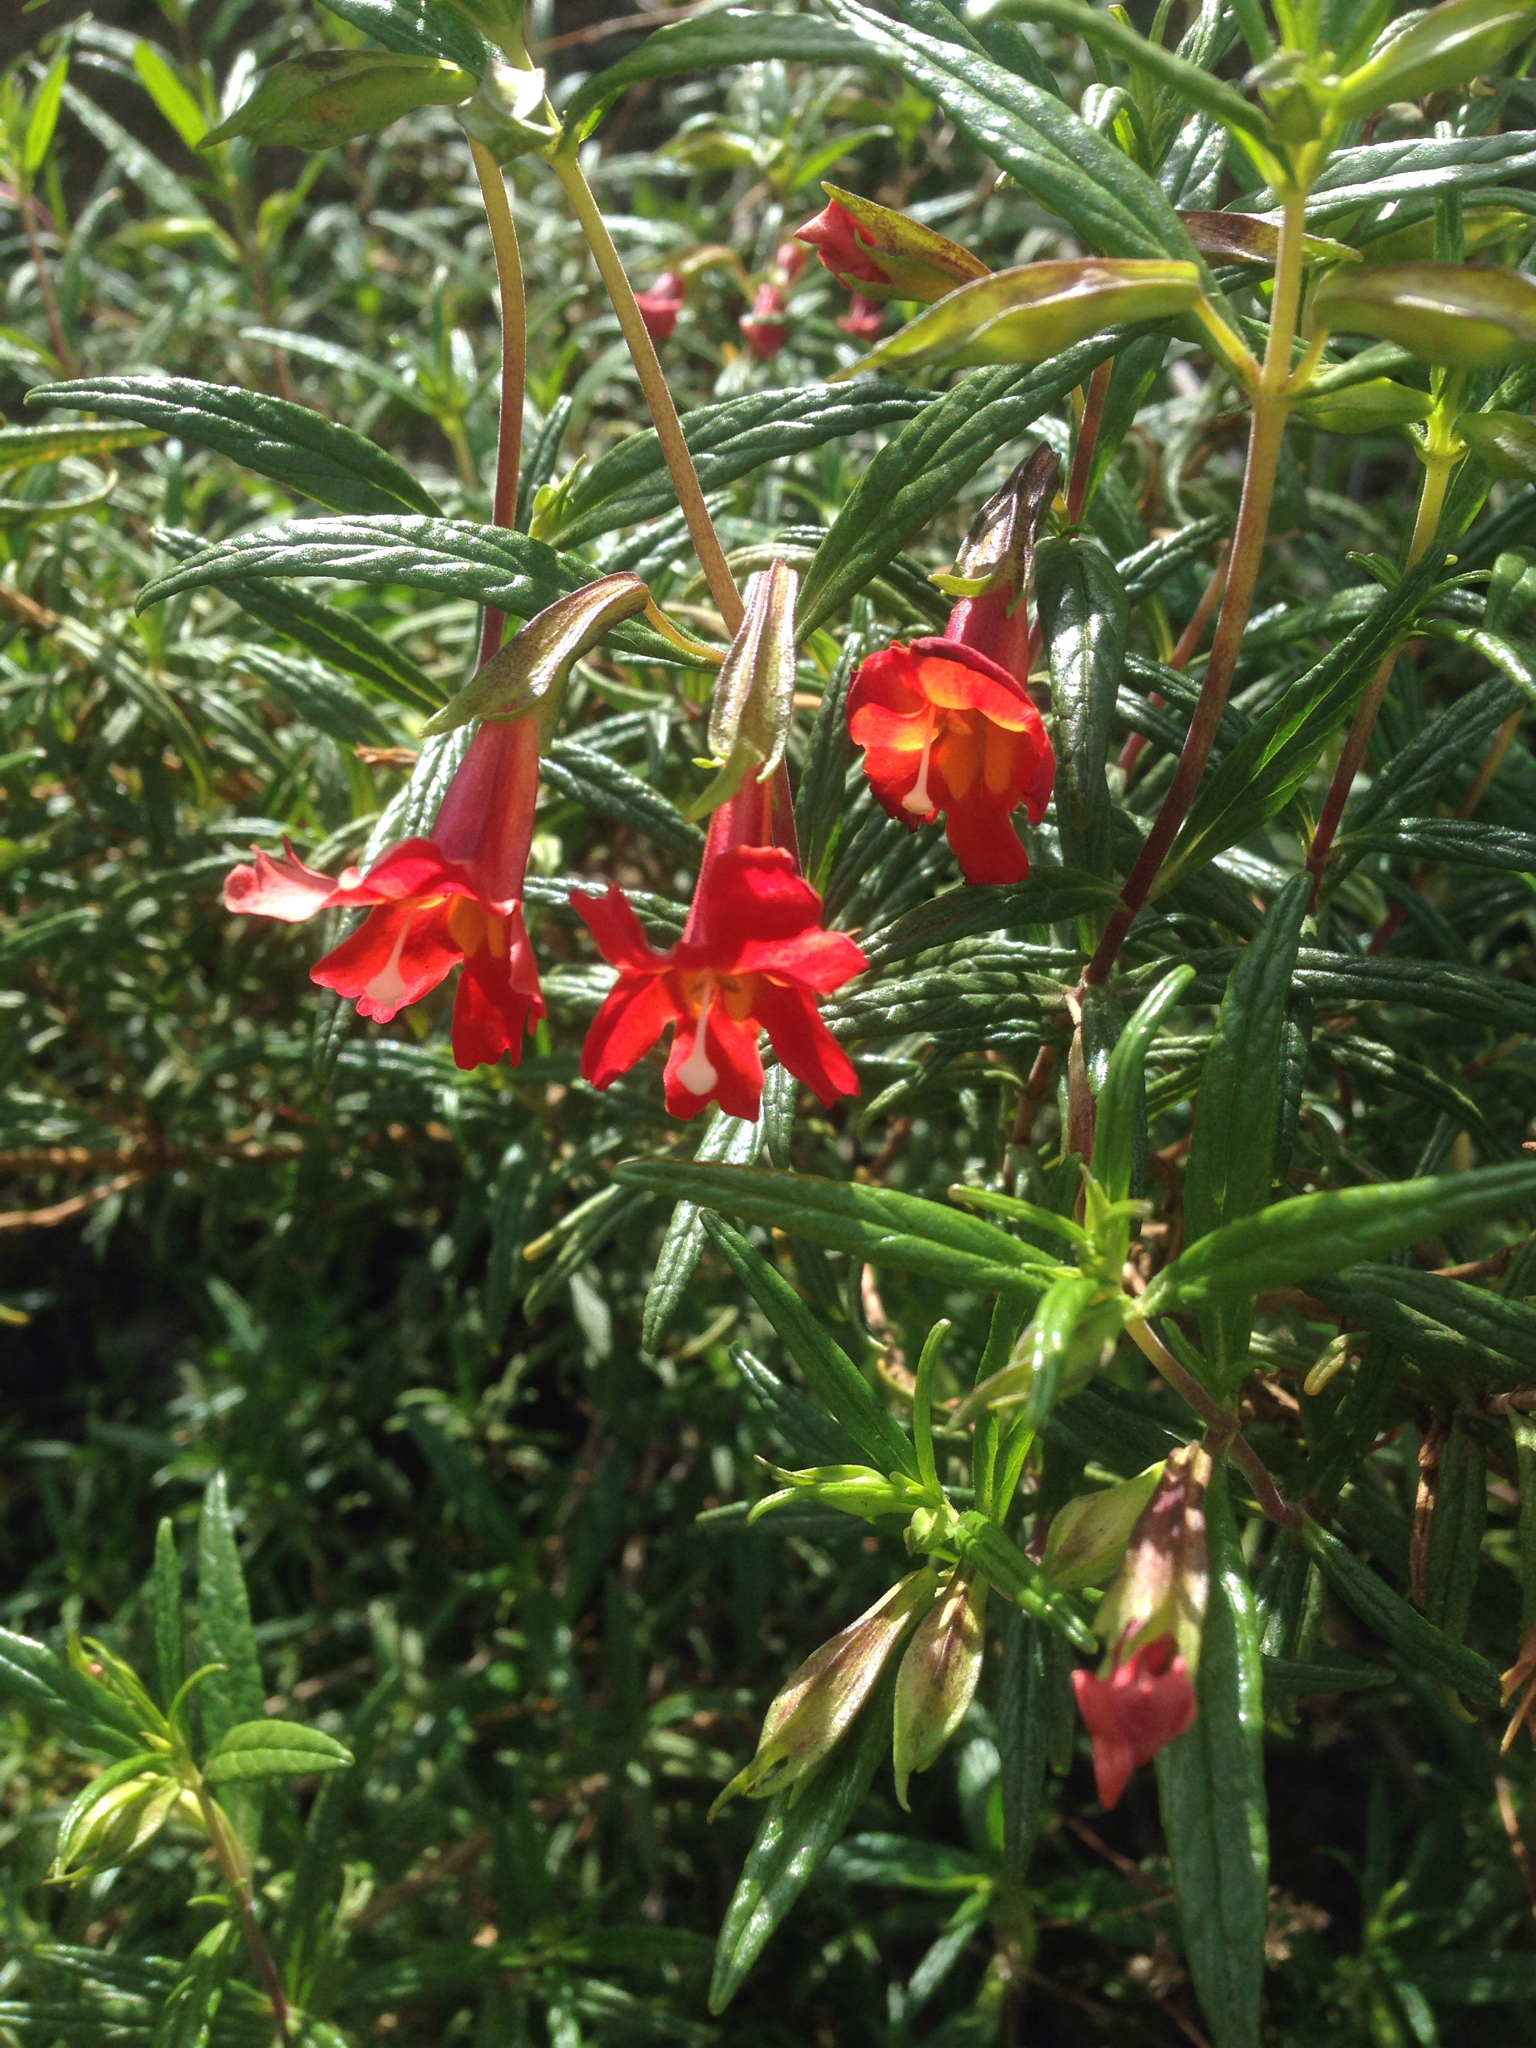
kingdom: Plantae
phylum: Tracheophyta
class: Magnoliopsida
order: Lamiales
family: Phrymaceae
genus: Diplacus
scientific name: Diplacus puniceus
